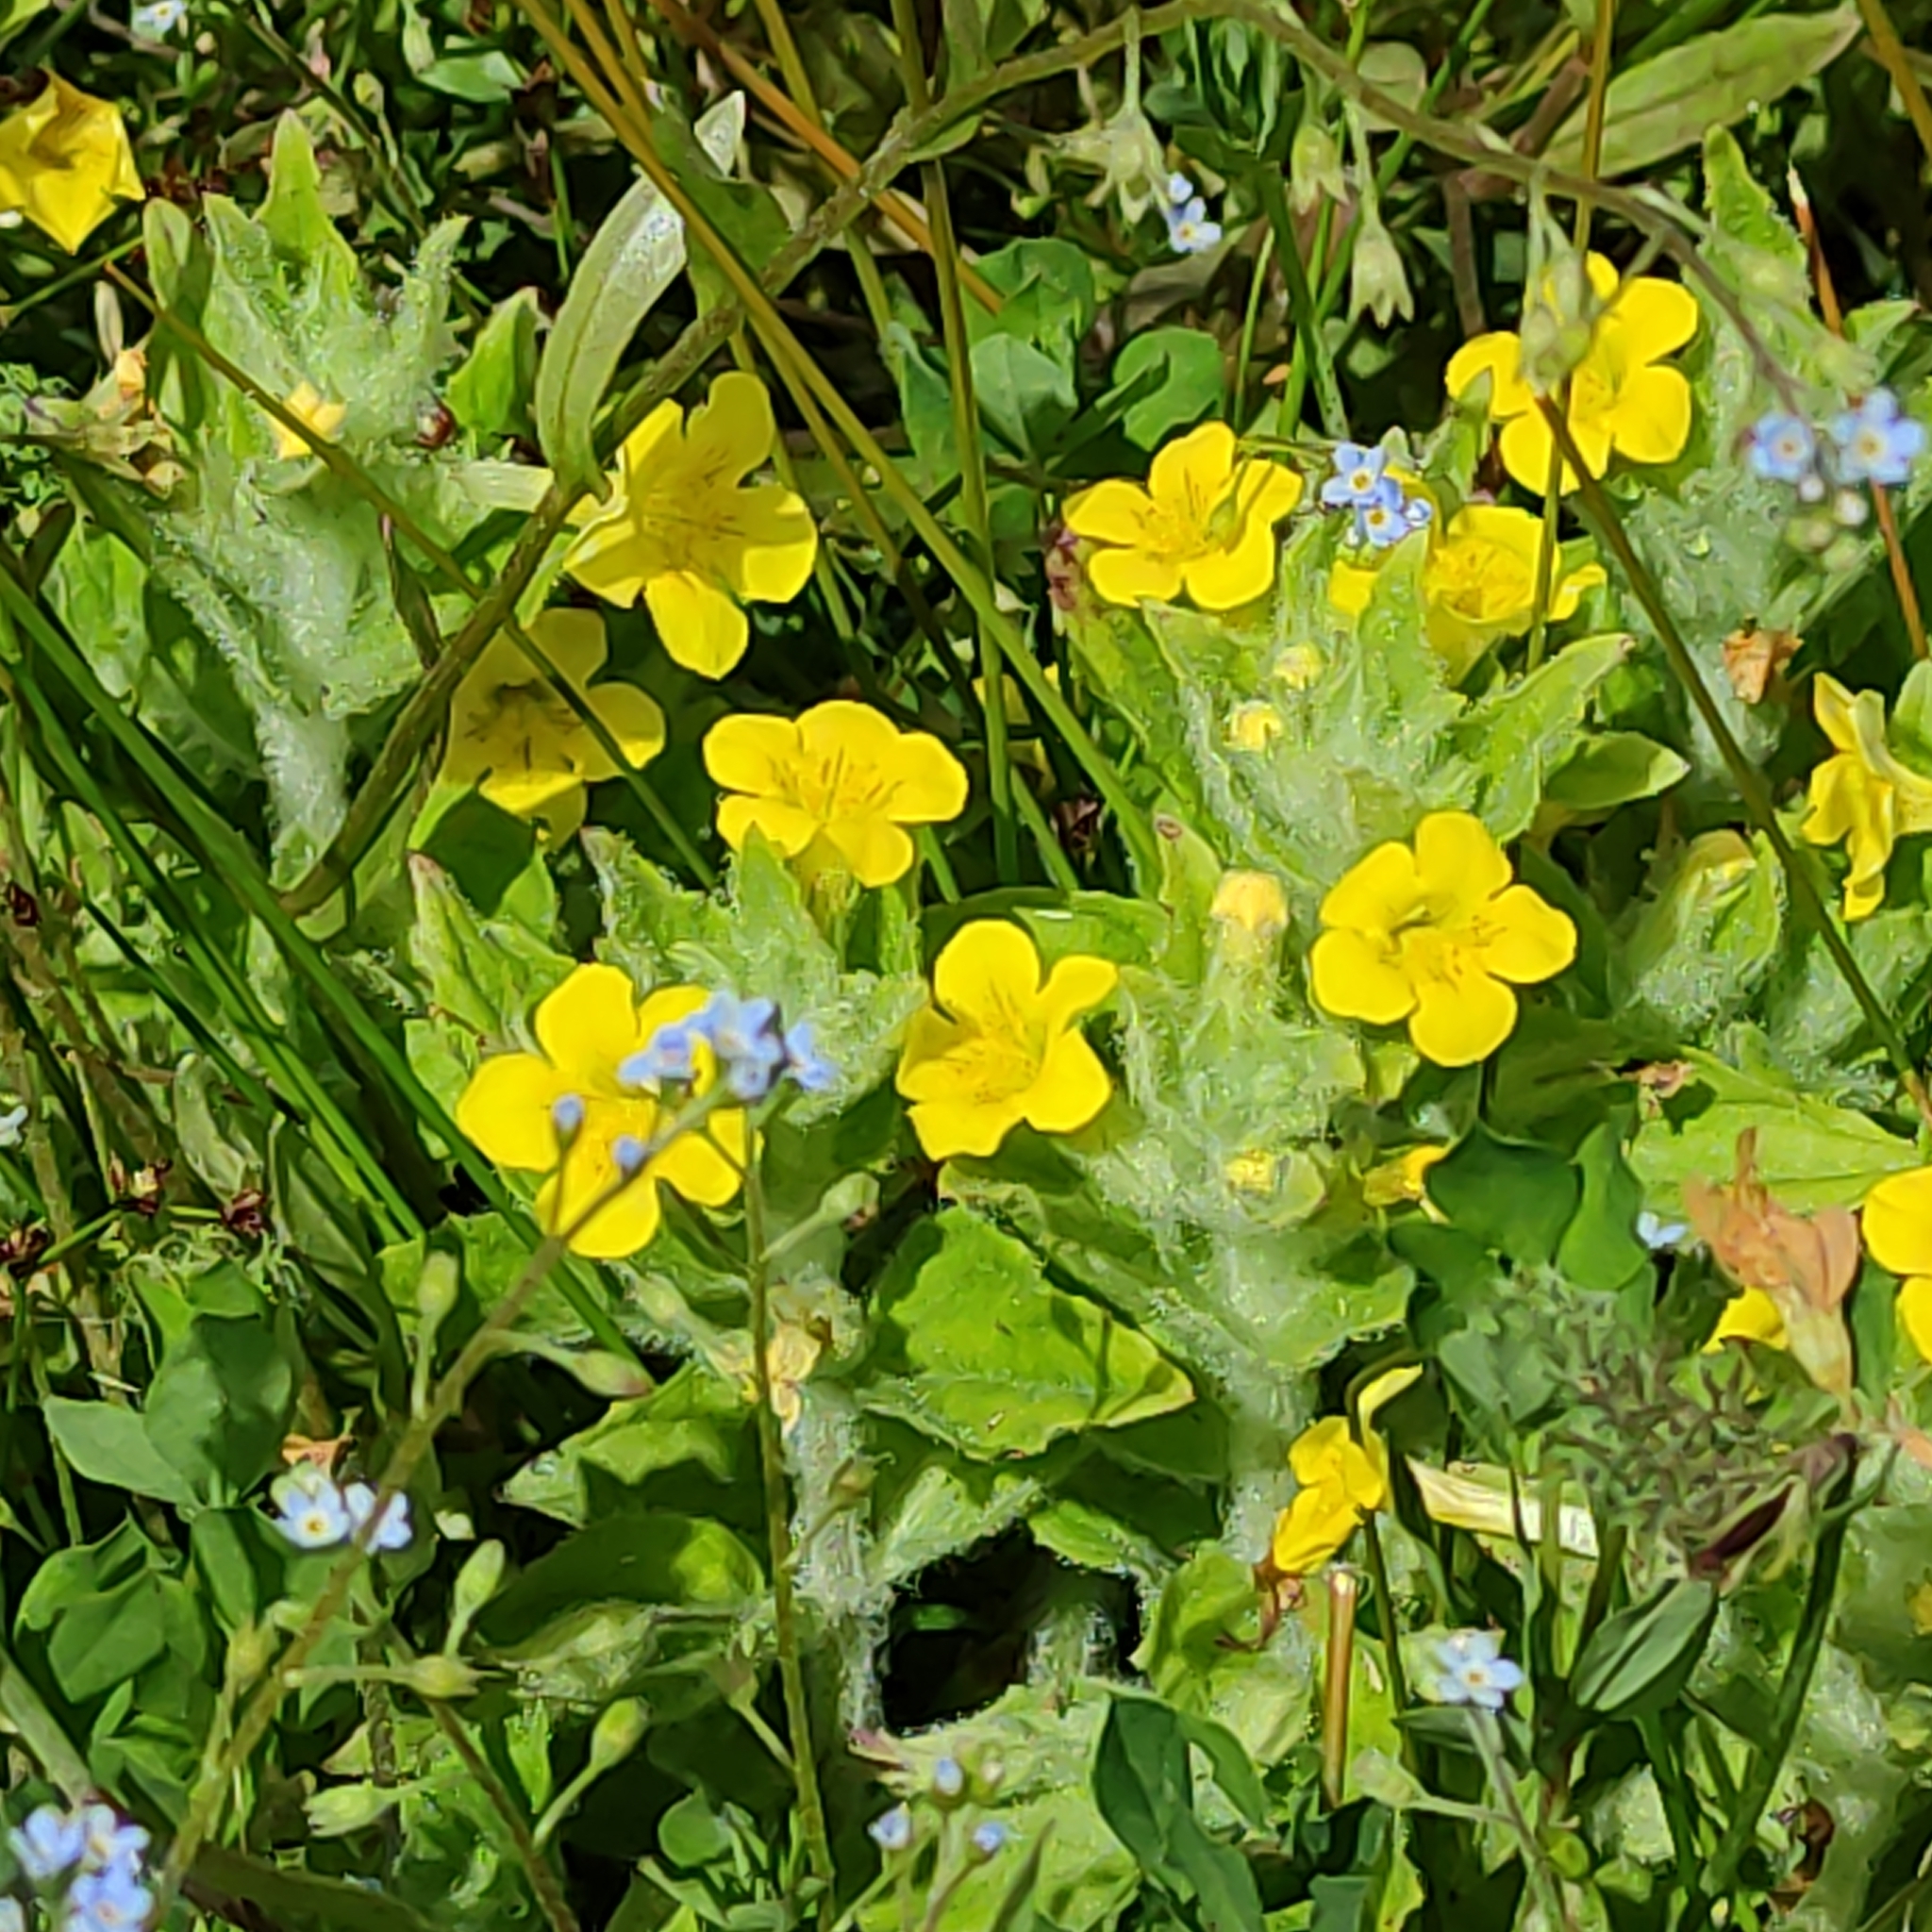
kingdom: Plantae
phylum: Tracheophyta
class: Magnoliopsida
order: Lamiales
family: Phrymaceae
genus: Erythranthe
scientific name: Erythranthe moschata
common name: Muskflower
